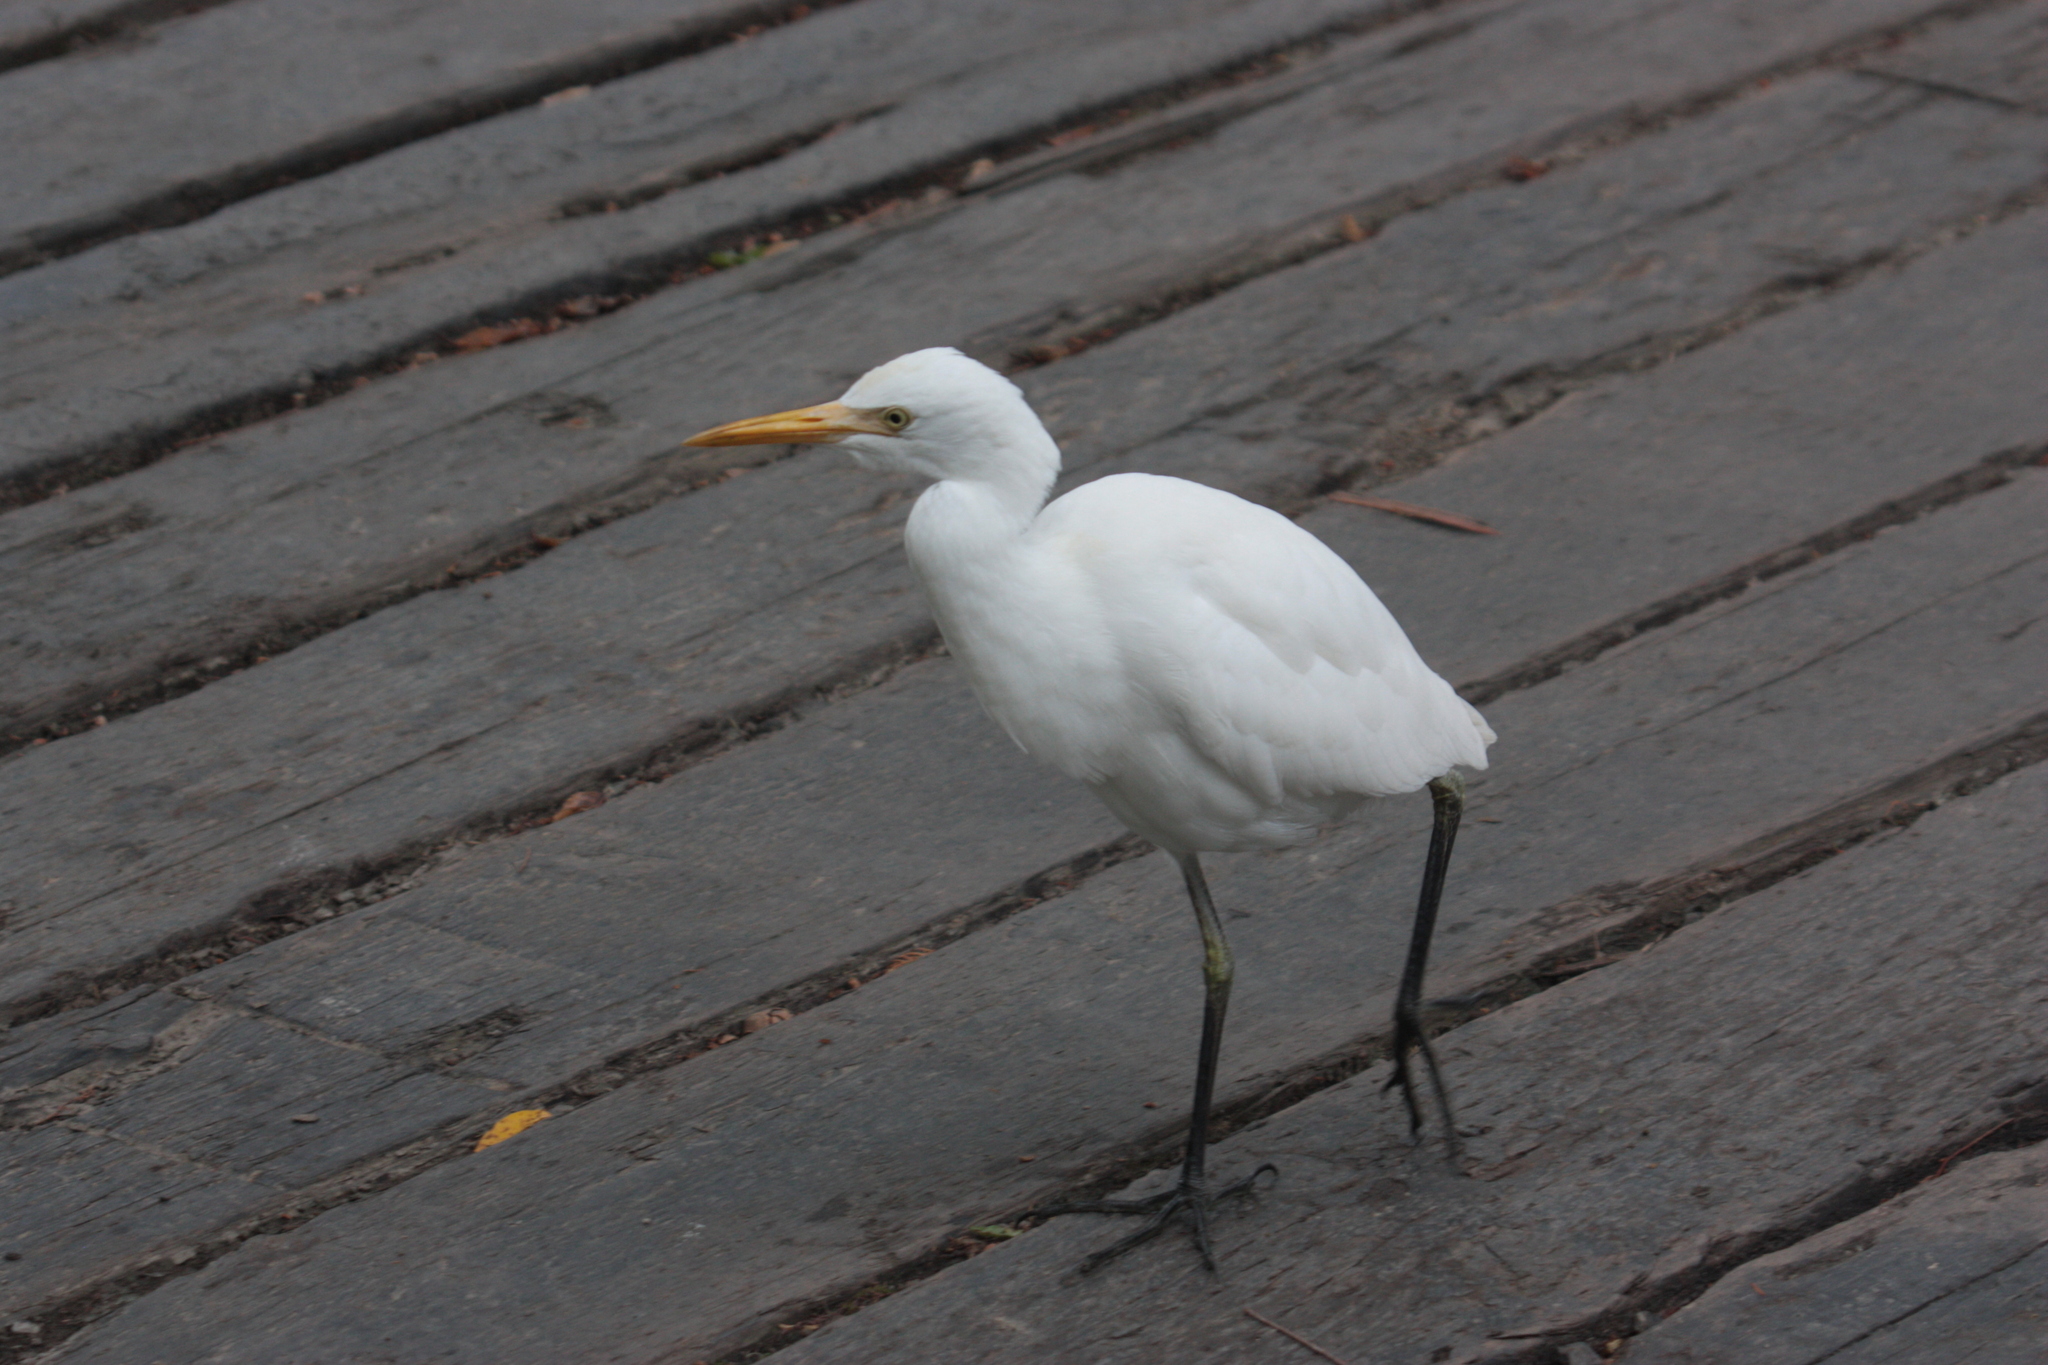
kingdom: Animalia
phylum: Chordata
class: Aves
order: Pelecaniformes
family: Ardeidae
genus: Bubulcus
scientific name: Bubulcus coromandus
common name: Eastern cattle egret
